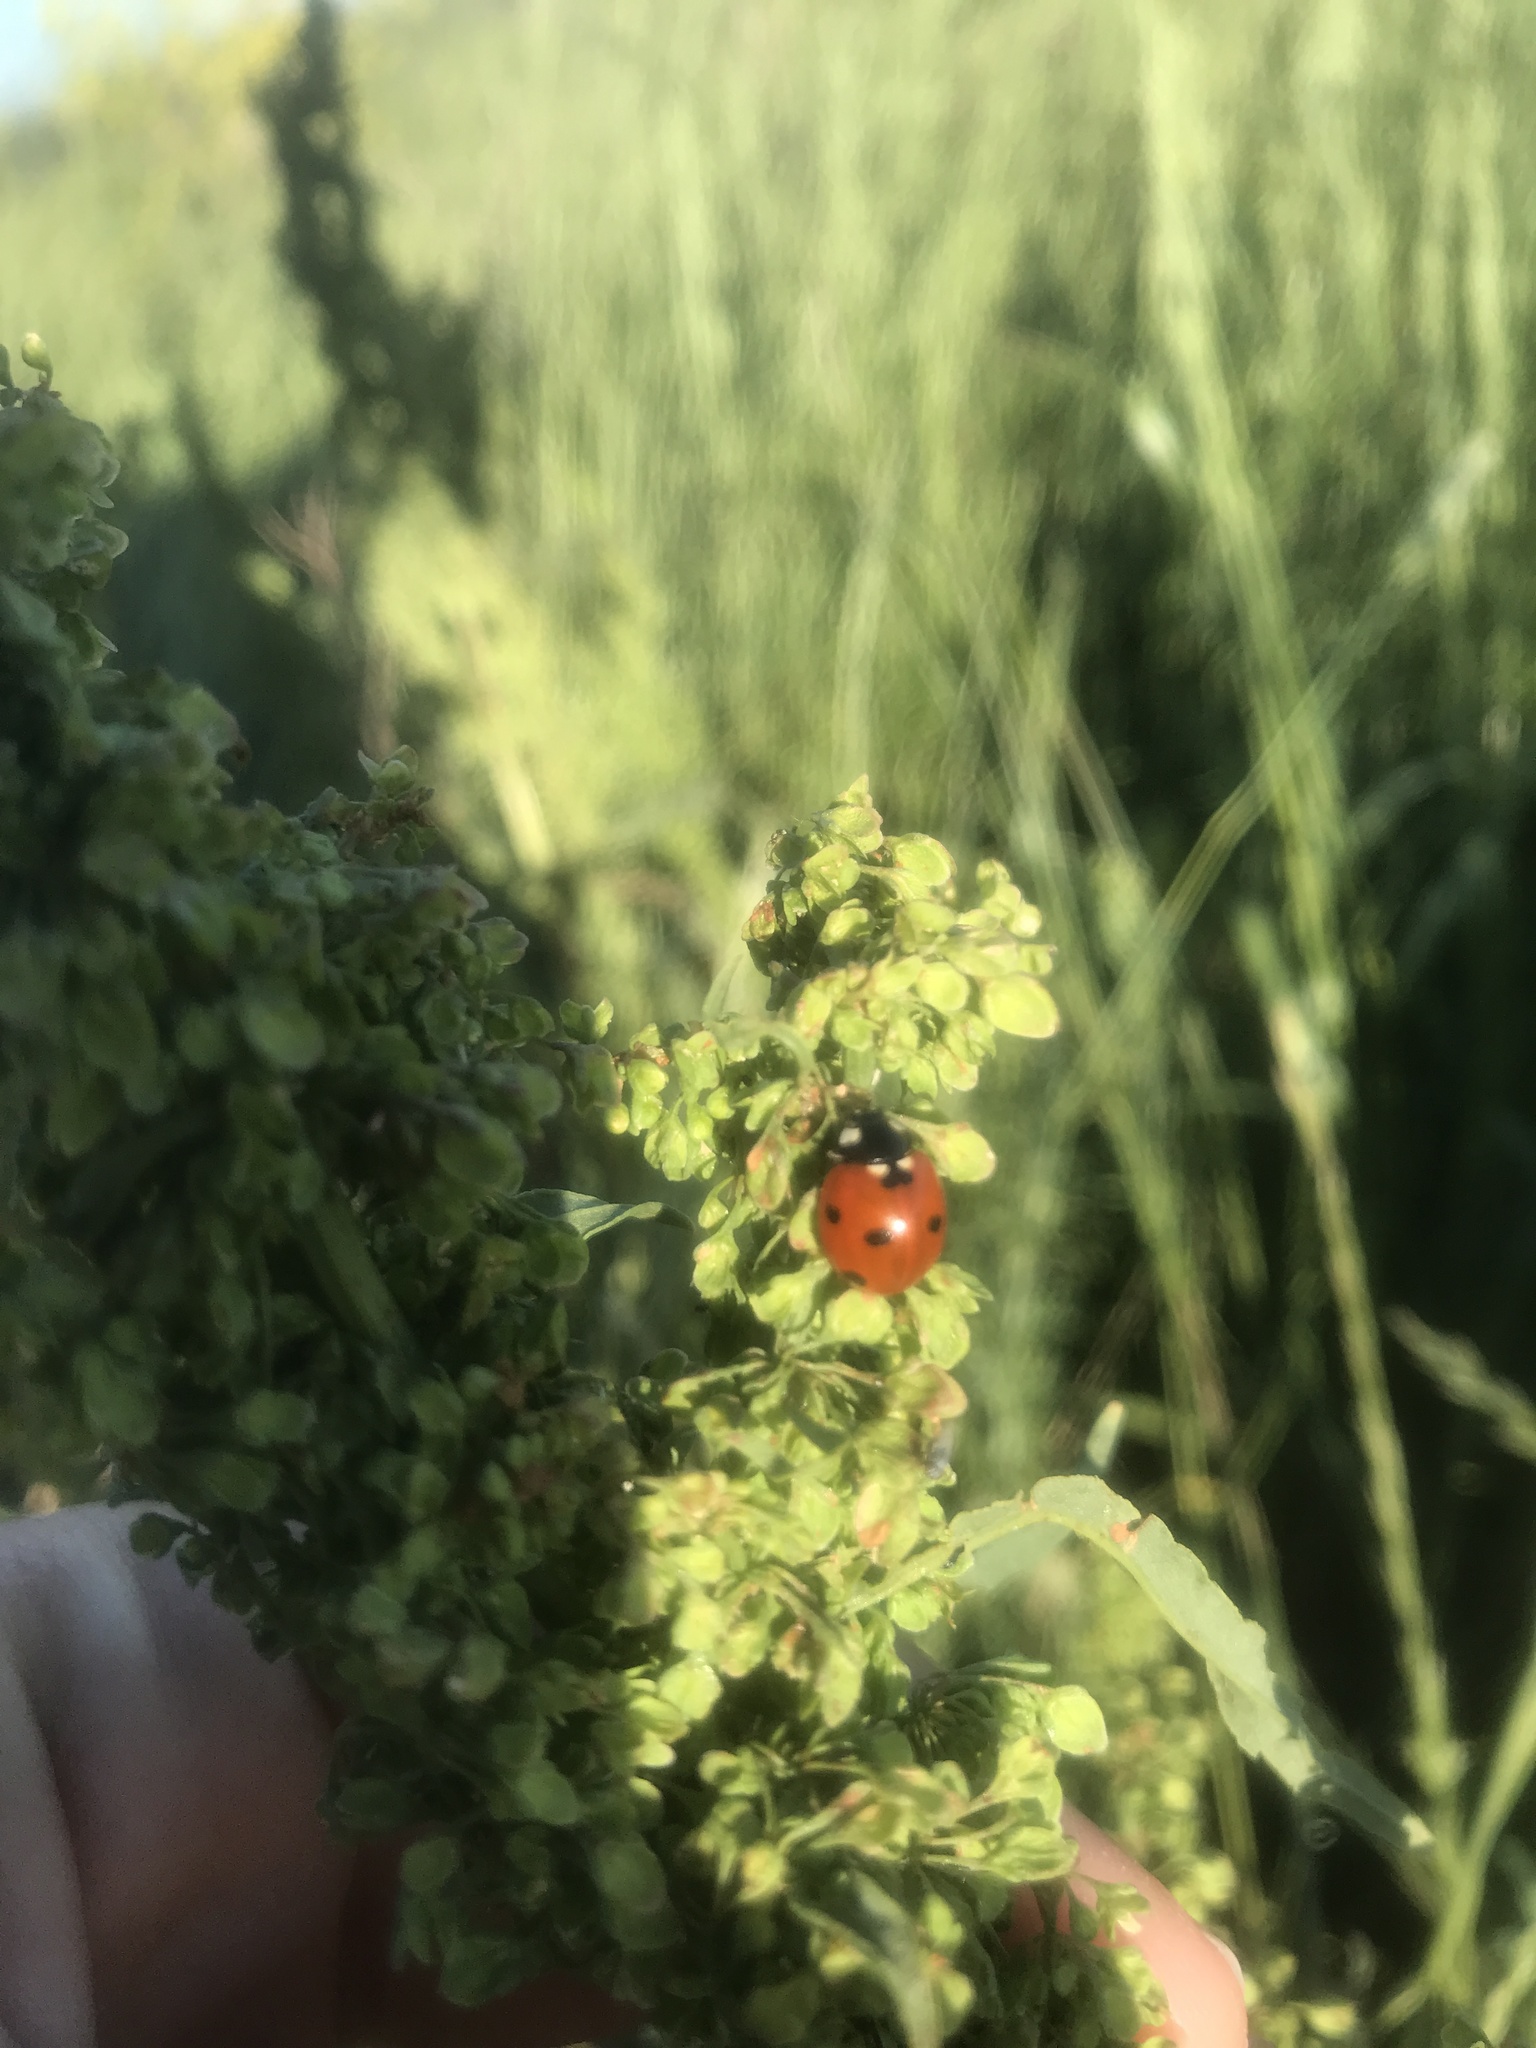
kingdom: Animalia
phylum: Arthropoda
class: Insecta
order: Coleoptera
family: Coccinellidae
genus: Coccinella
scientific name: Coccinella septempunctata
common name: Sevenspotted lady beetle
